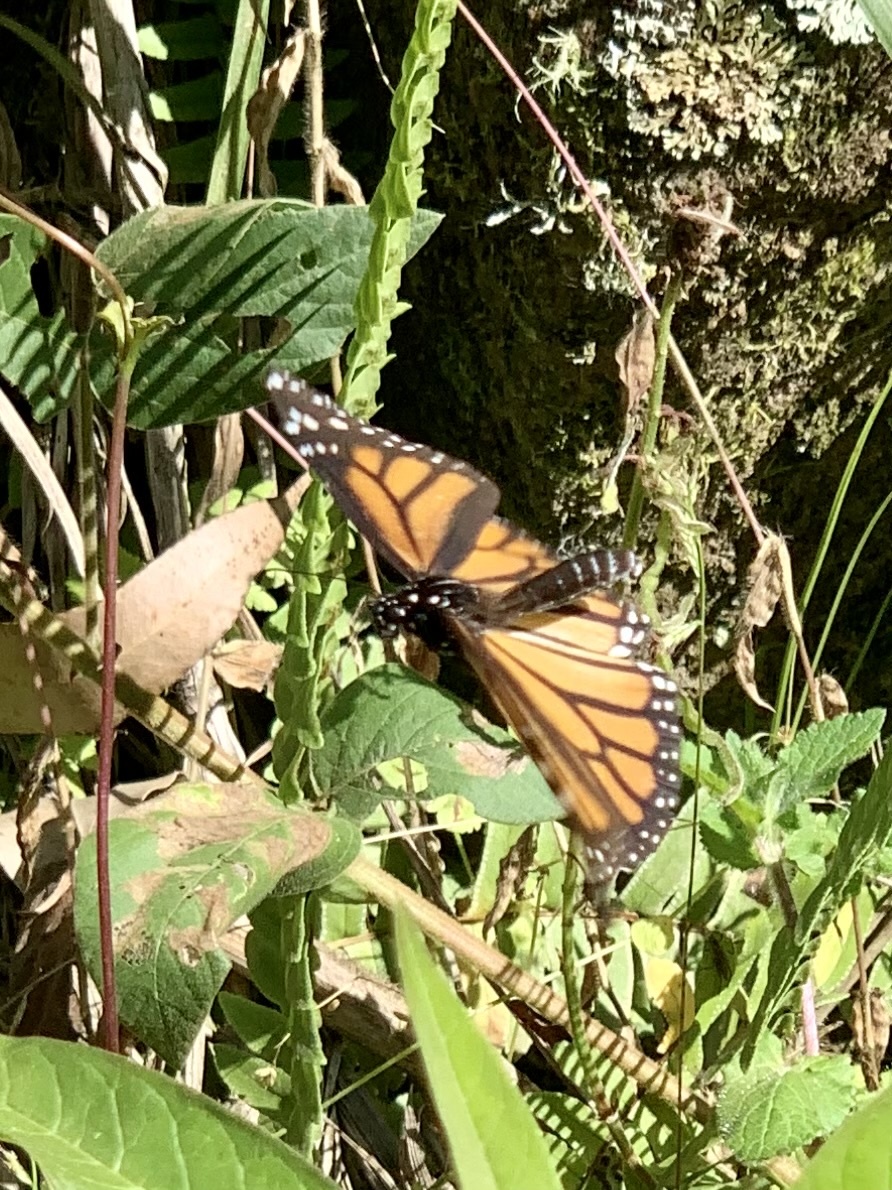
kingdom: Animalia
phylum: Arthropoda
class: Insecta
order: Lepidoptera
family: Nymphalidae
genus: Danaus
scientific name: Danaus plexippus
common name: Monarch
